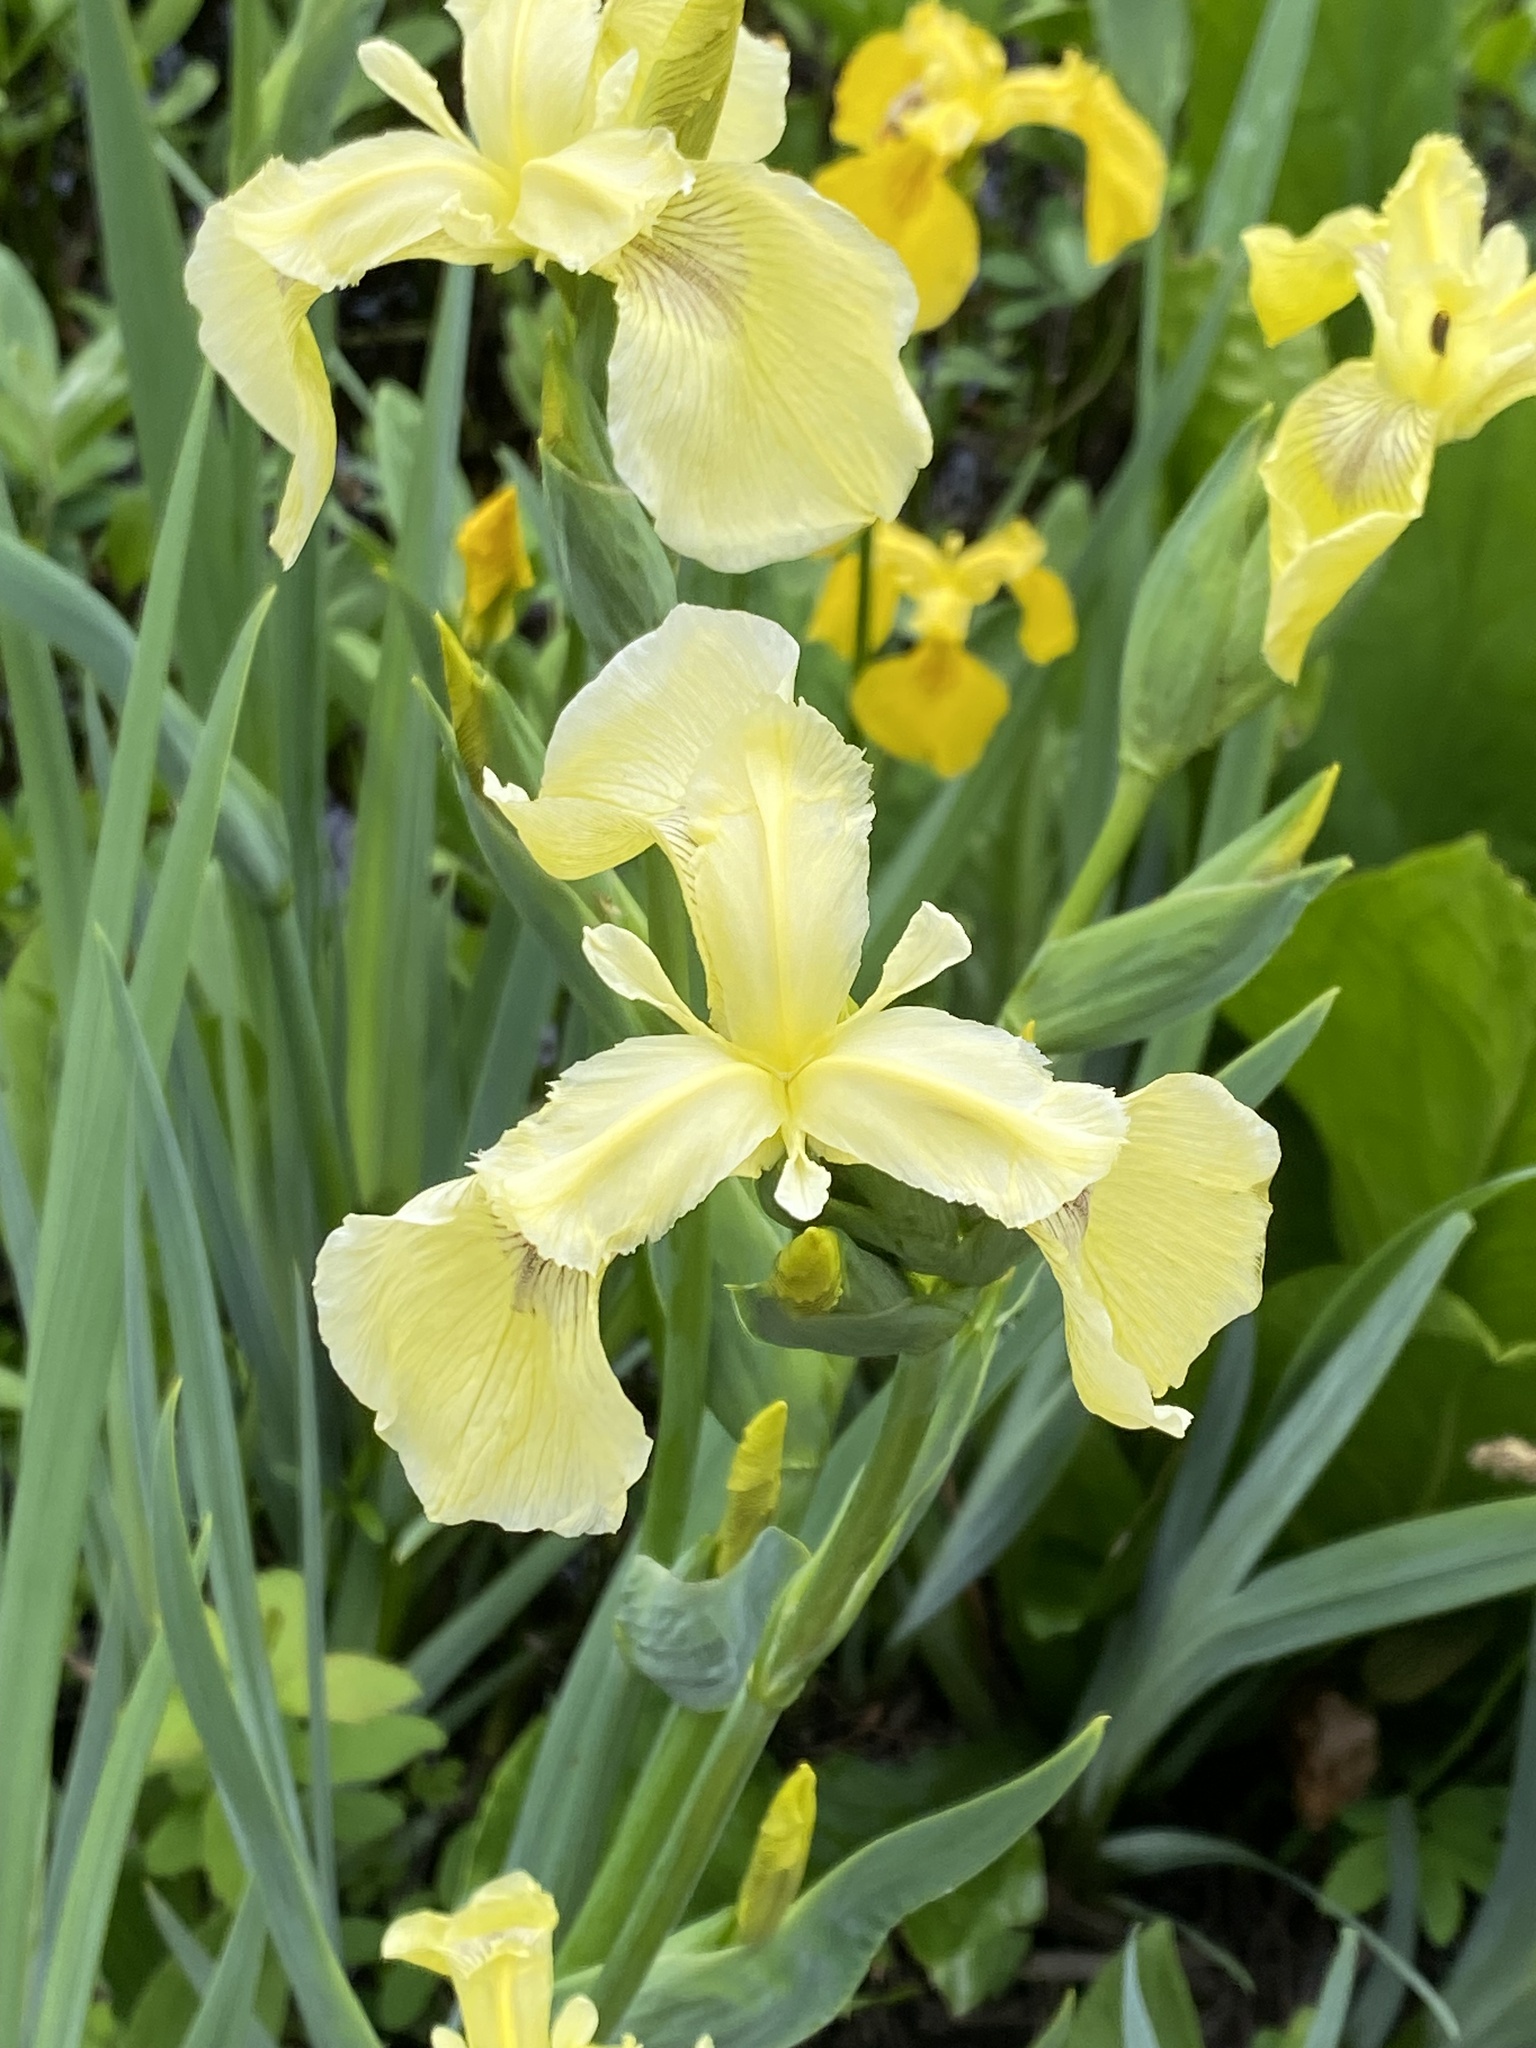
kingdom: Plantae
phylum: Tracheophyta
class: Liliopsida
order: Asparagales
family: Iridaceae
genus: Iris
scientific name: Iris pseudacorus
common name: Yellow flag
